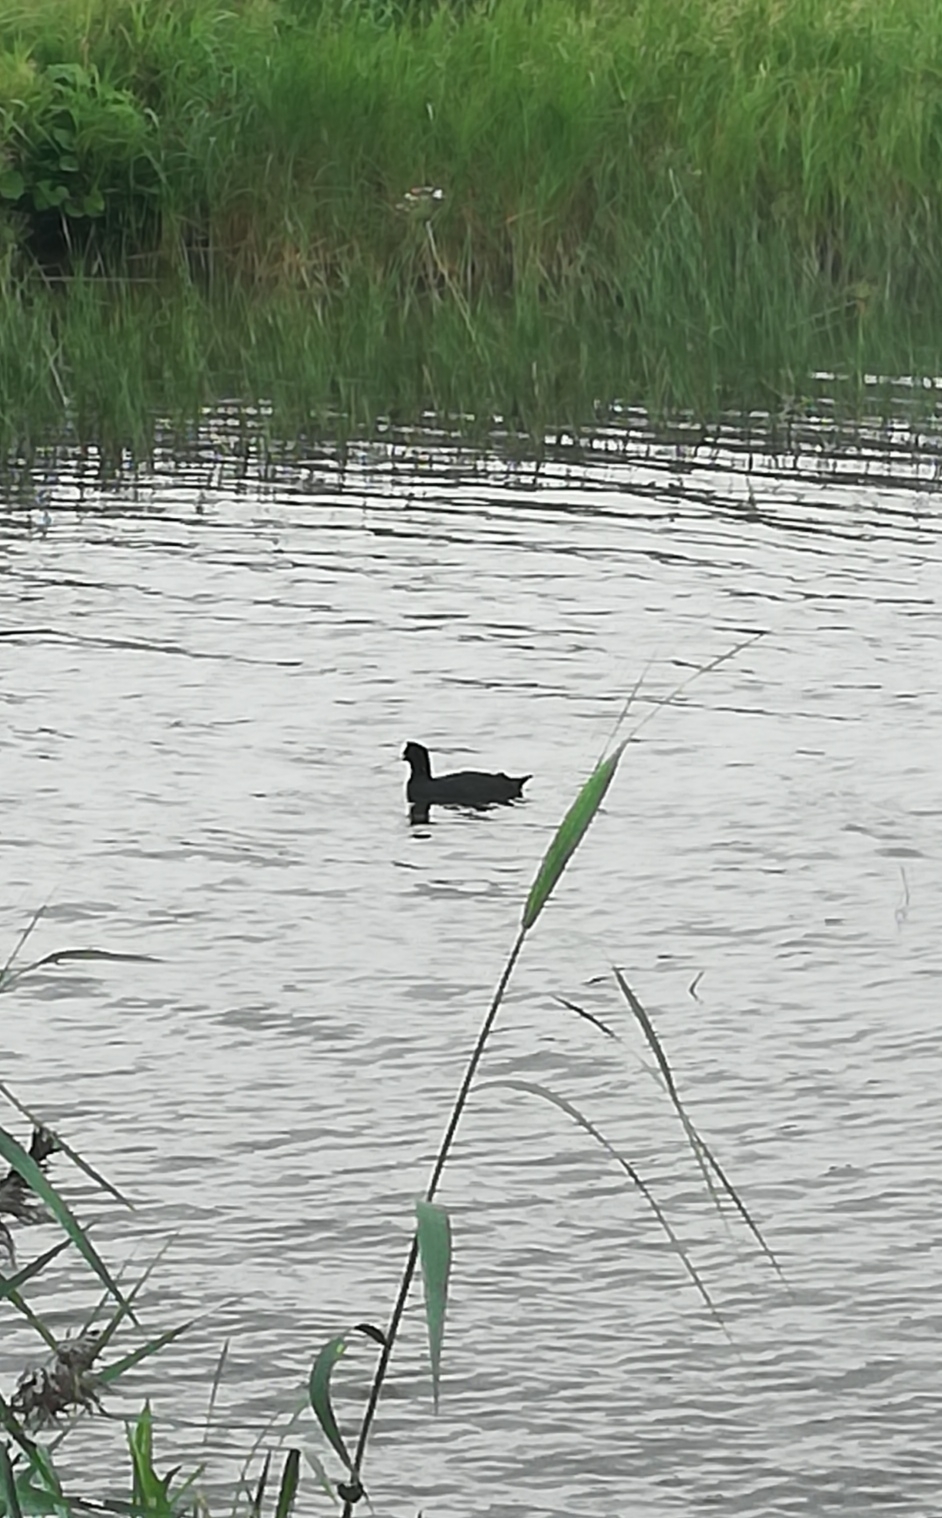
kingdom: Animalia
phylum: Chordata
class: Aves
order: Gruiformes
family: Rallidae
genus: Fulica
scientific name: Fulica atra
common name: Eurasian coot
